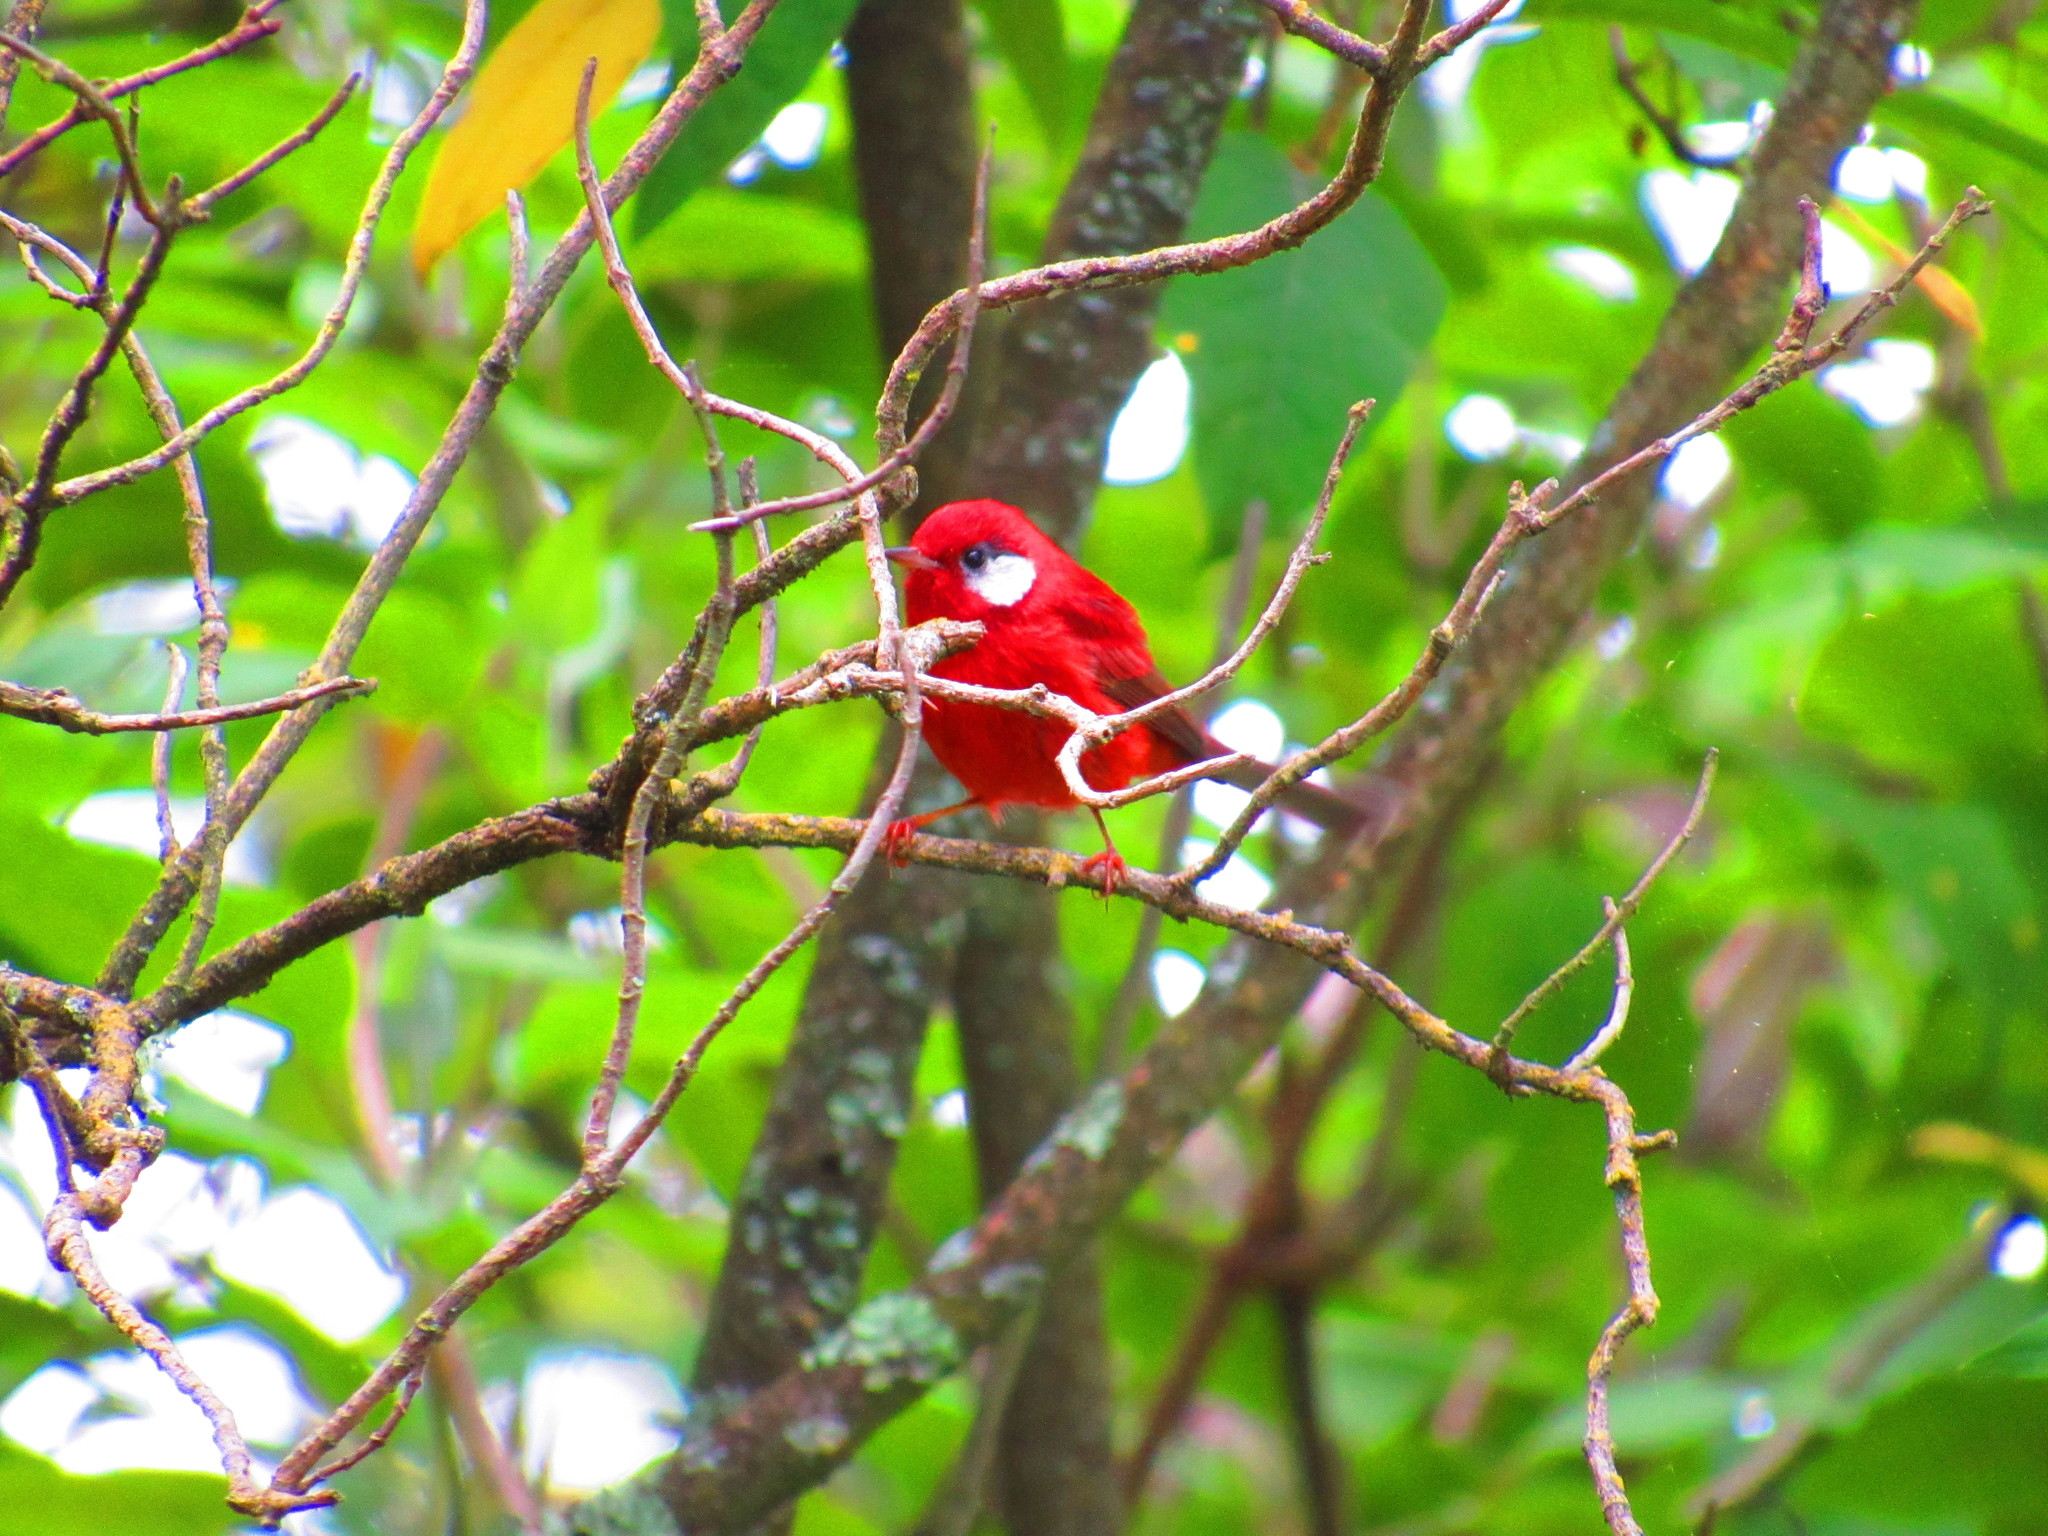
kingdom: Animalia
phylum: Chordata
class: Aves
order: Passeriformes
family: Parulidae
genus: Cardellina
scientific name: Cardellina rubra
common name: Red warbler
